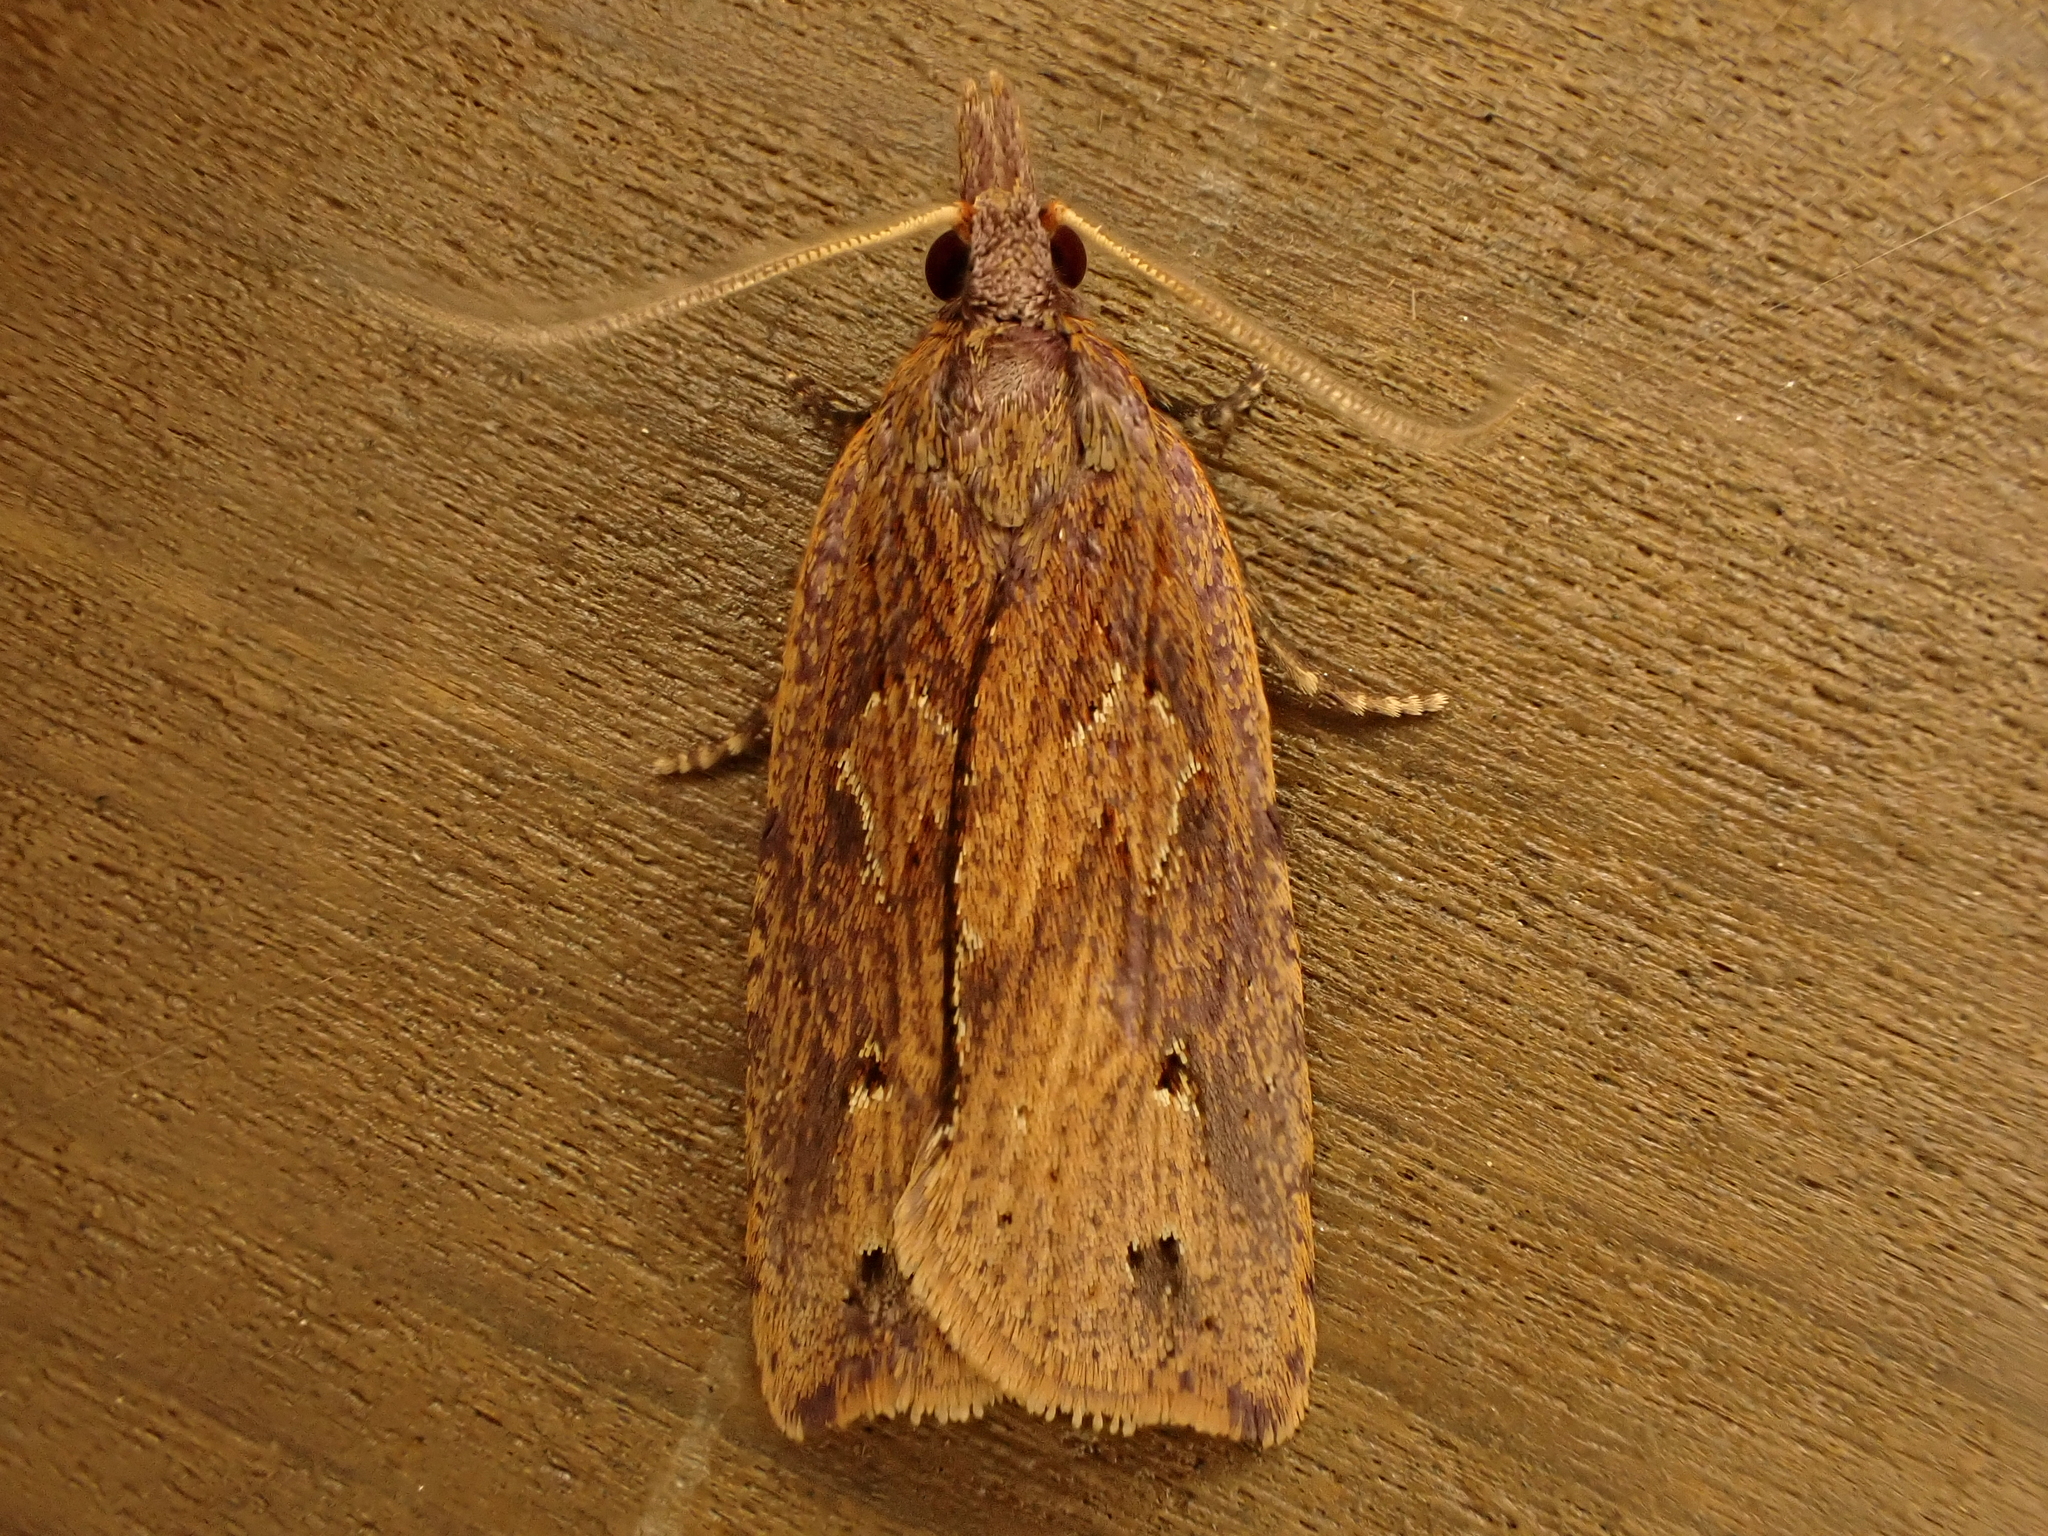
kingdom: Animalia
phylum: Arthropoda
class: Insecta
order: Lepidoptera
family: Tortricidae
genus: Planotortrix
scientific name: Planotortrix notophaea
